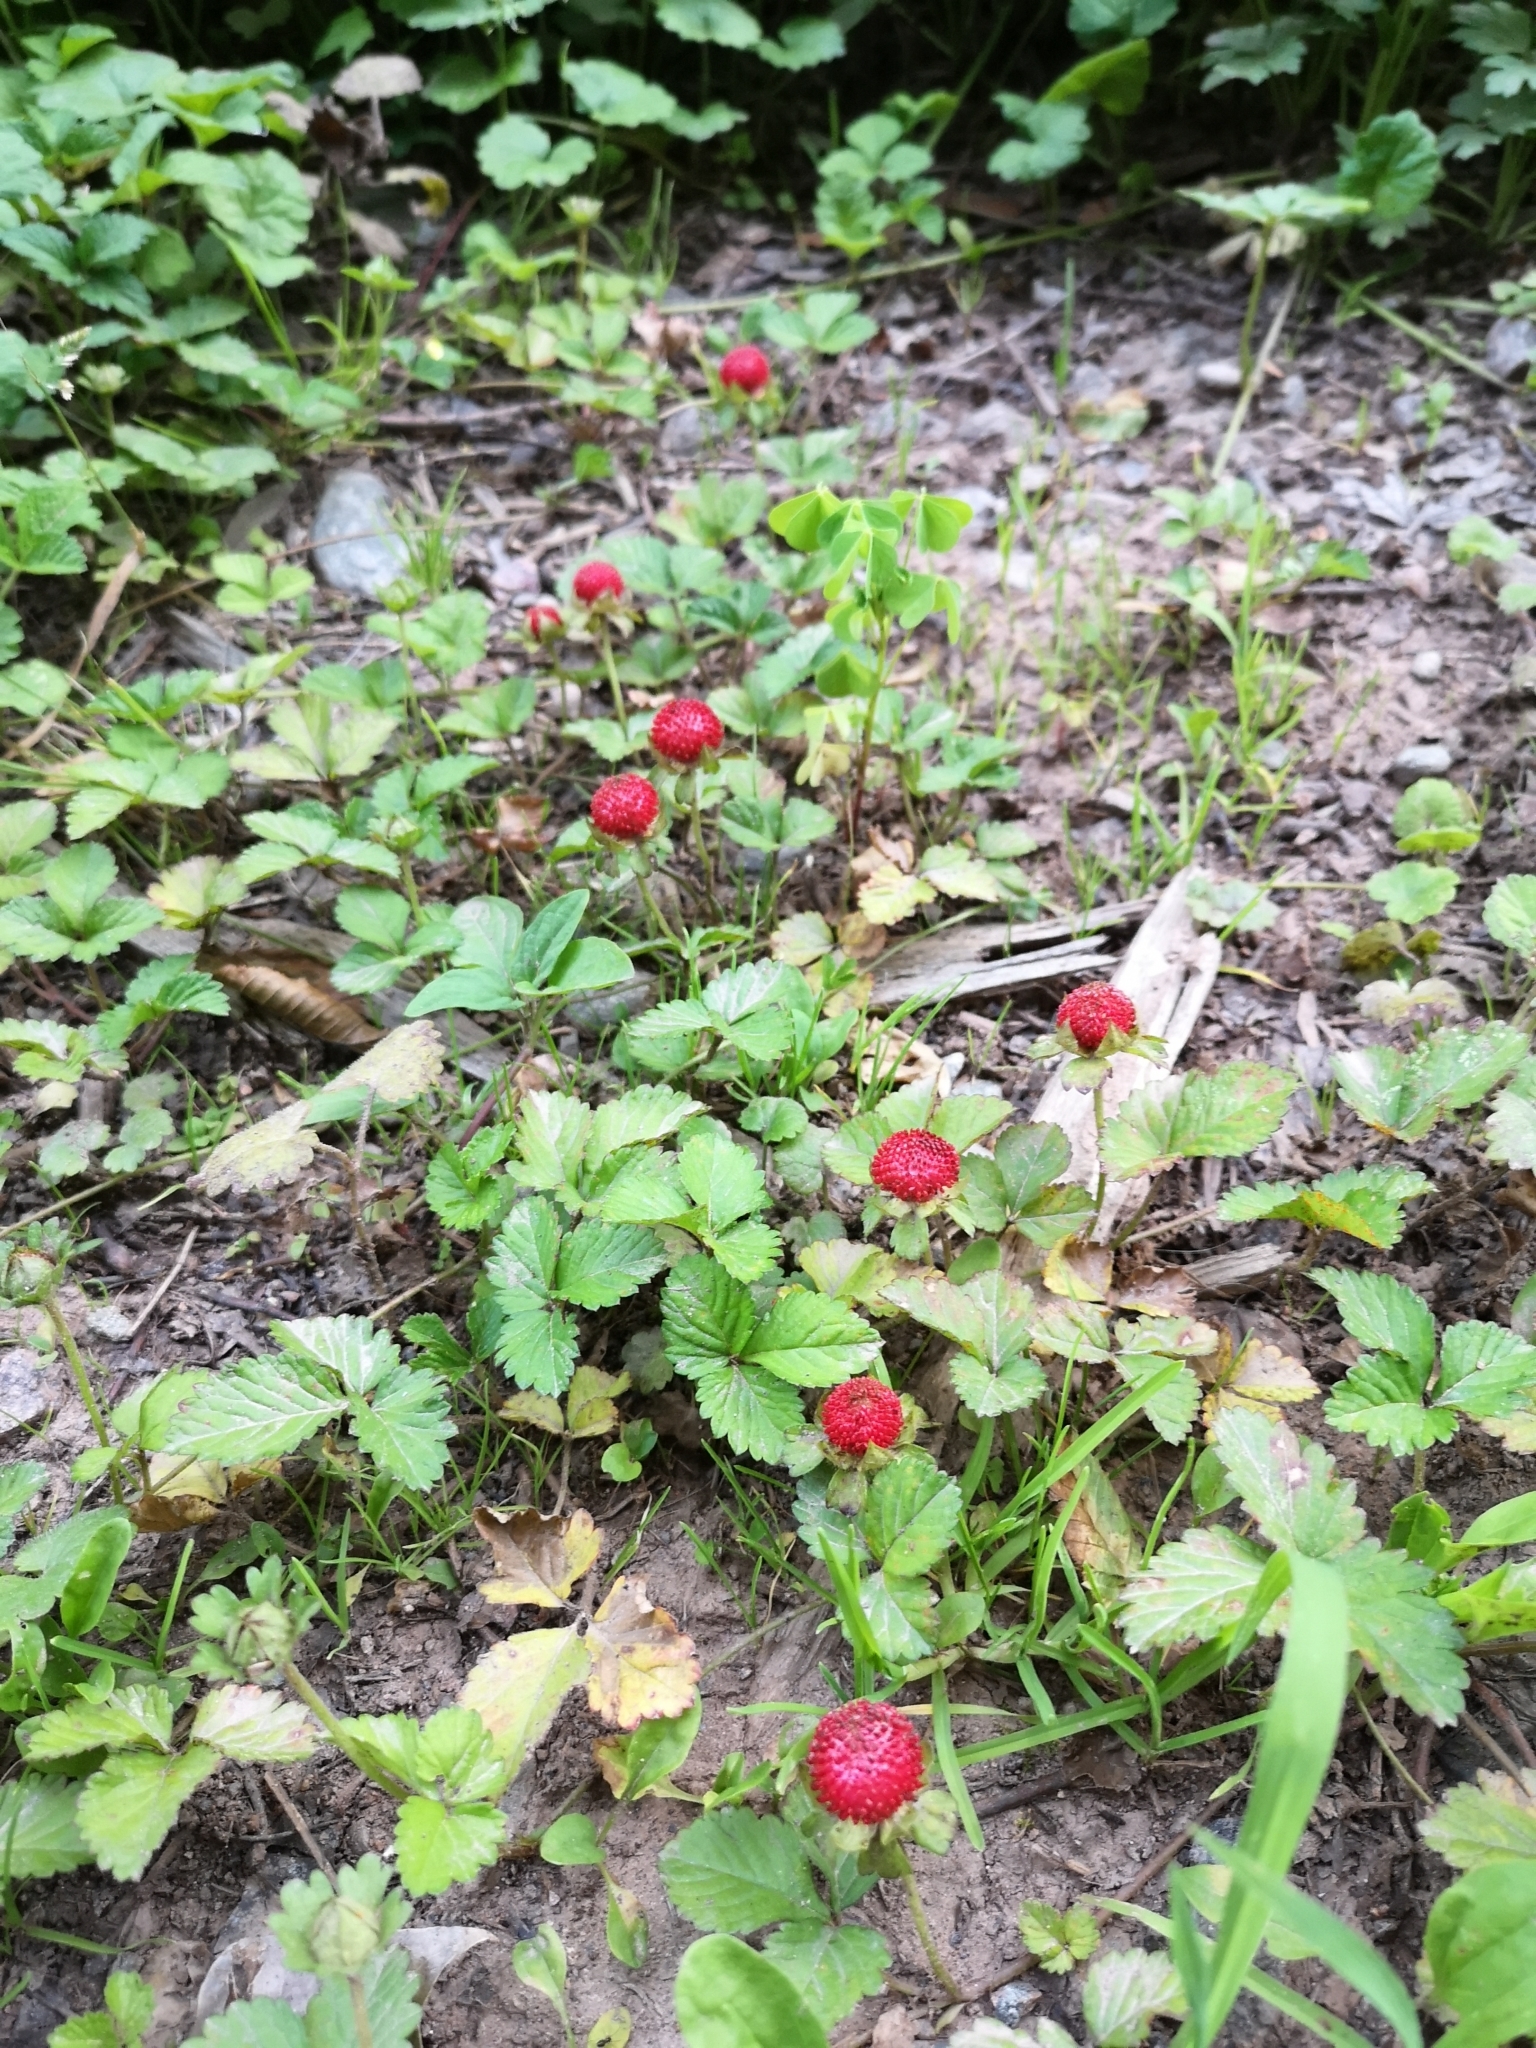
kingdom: Plantae
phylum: Tracheophyta
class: Magnoliopsida
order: Rosales
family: Rosaceae
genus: Potentilla
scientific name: Potentilla indica
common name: Yellow-flowered strawberry
